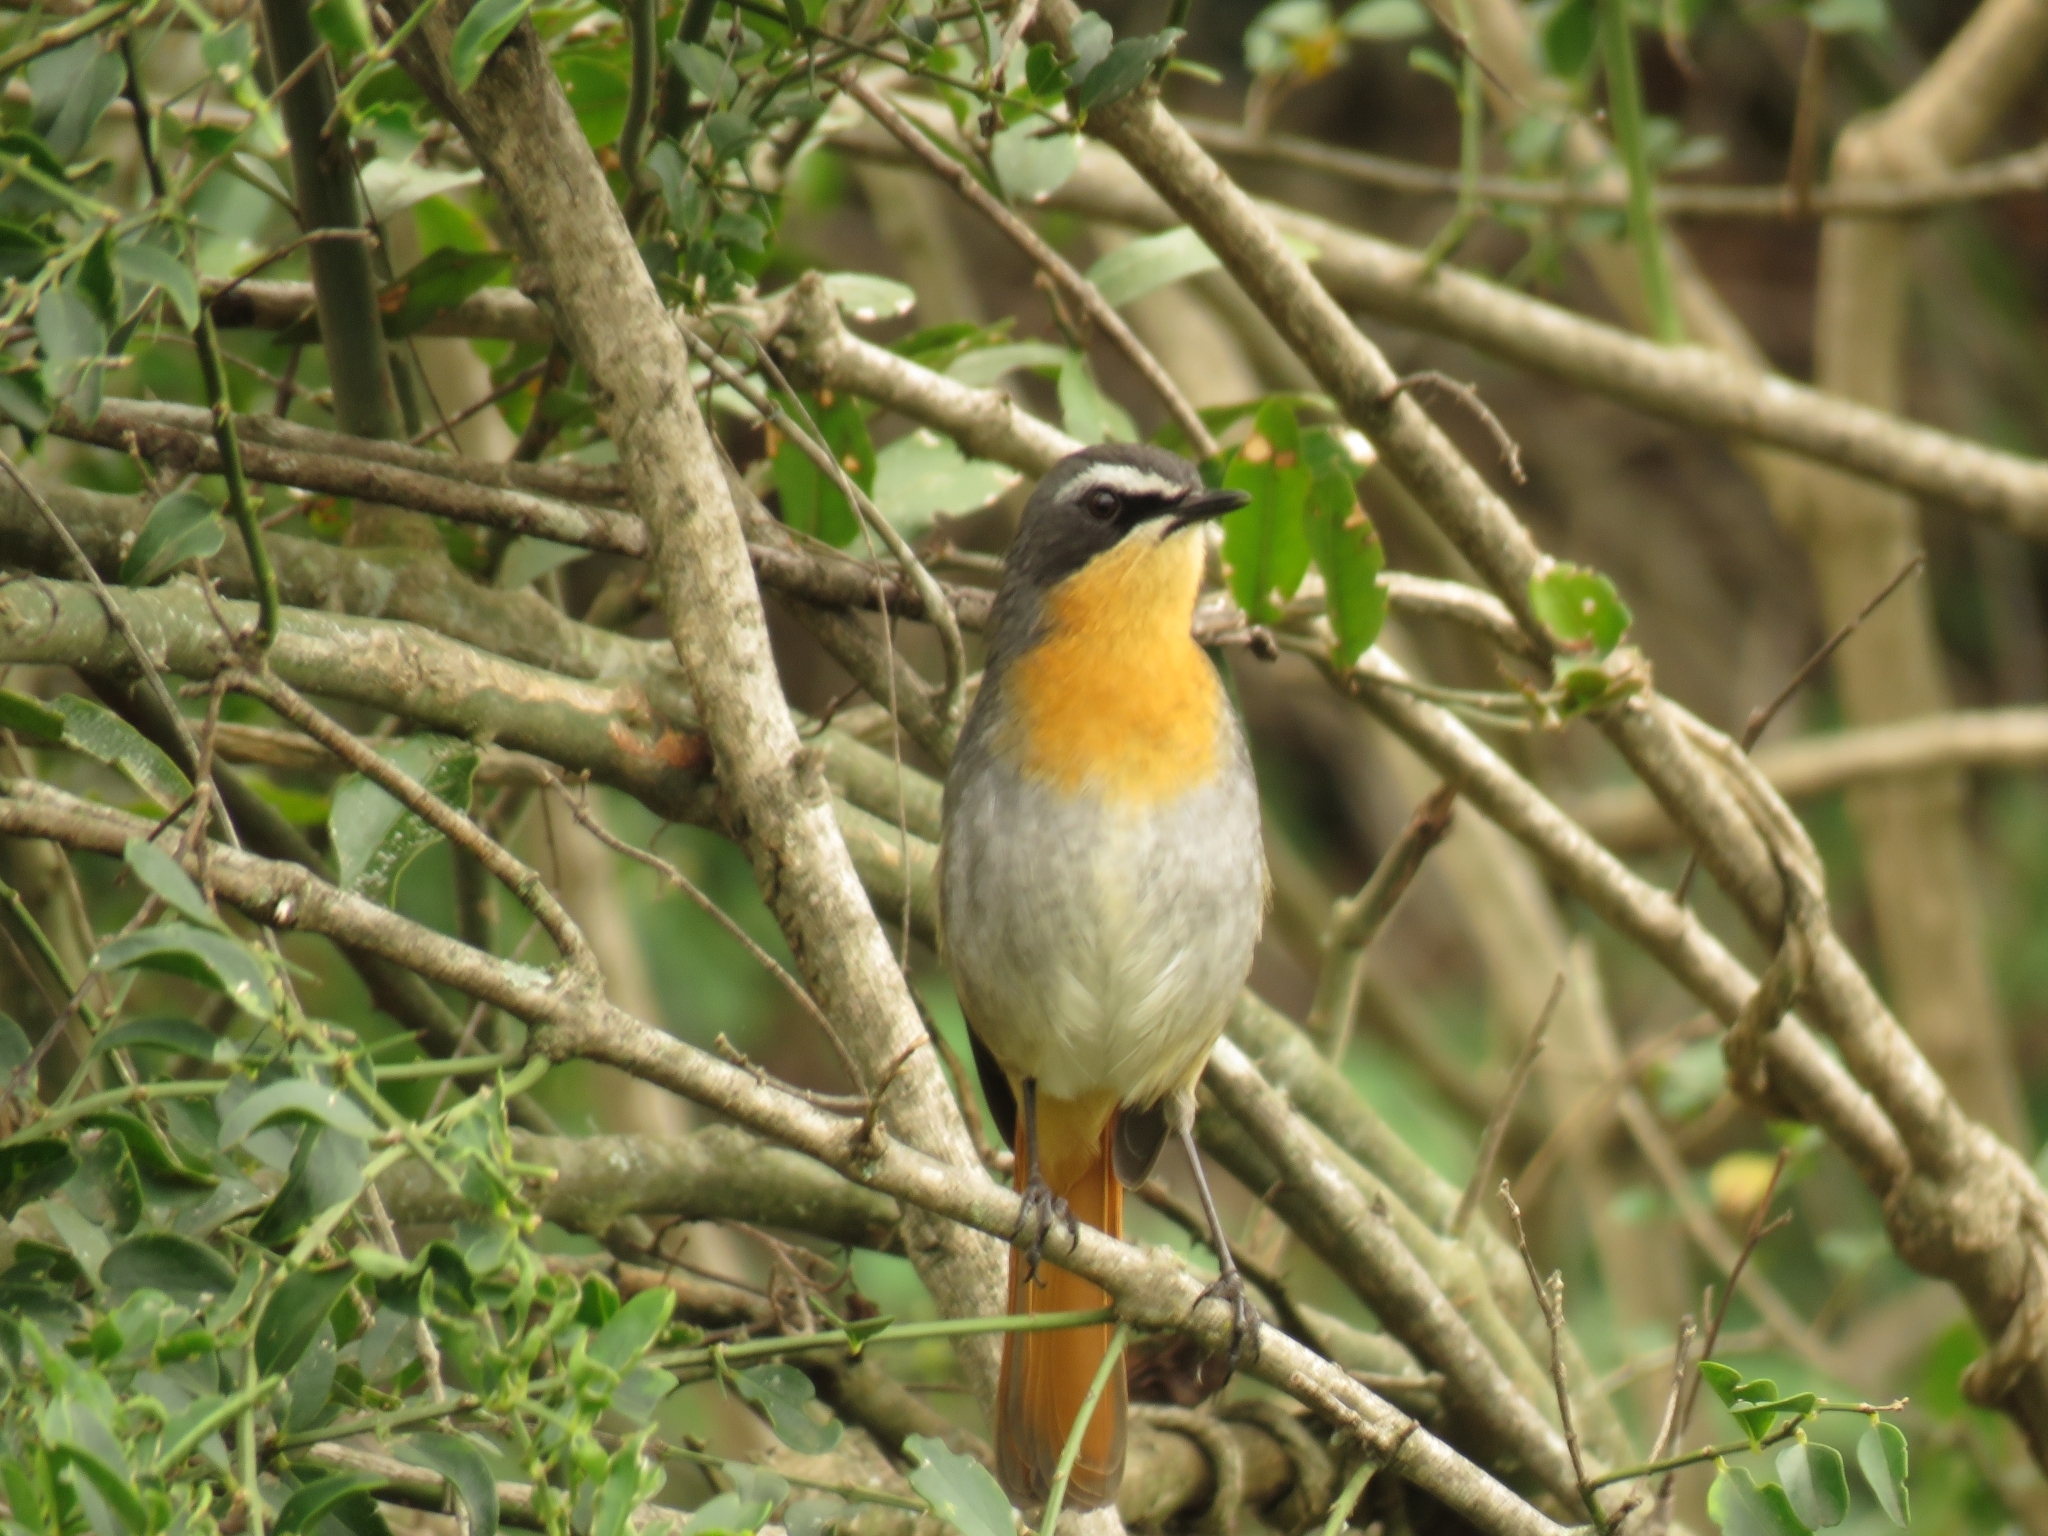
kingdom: Animalia
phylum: Chordata
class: Aves
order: Passeriformes
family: Muscicapidae
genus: Cossypha
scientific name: Cossypha caffra
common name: Cape robin-chat
